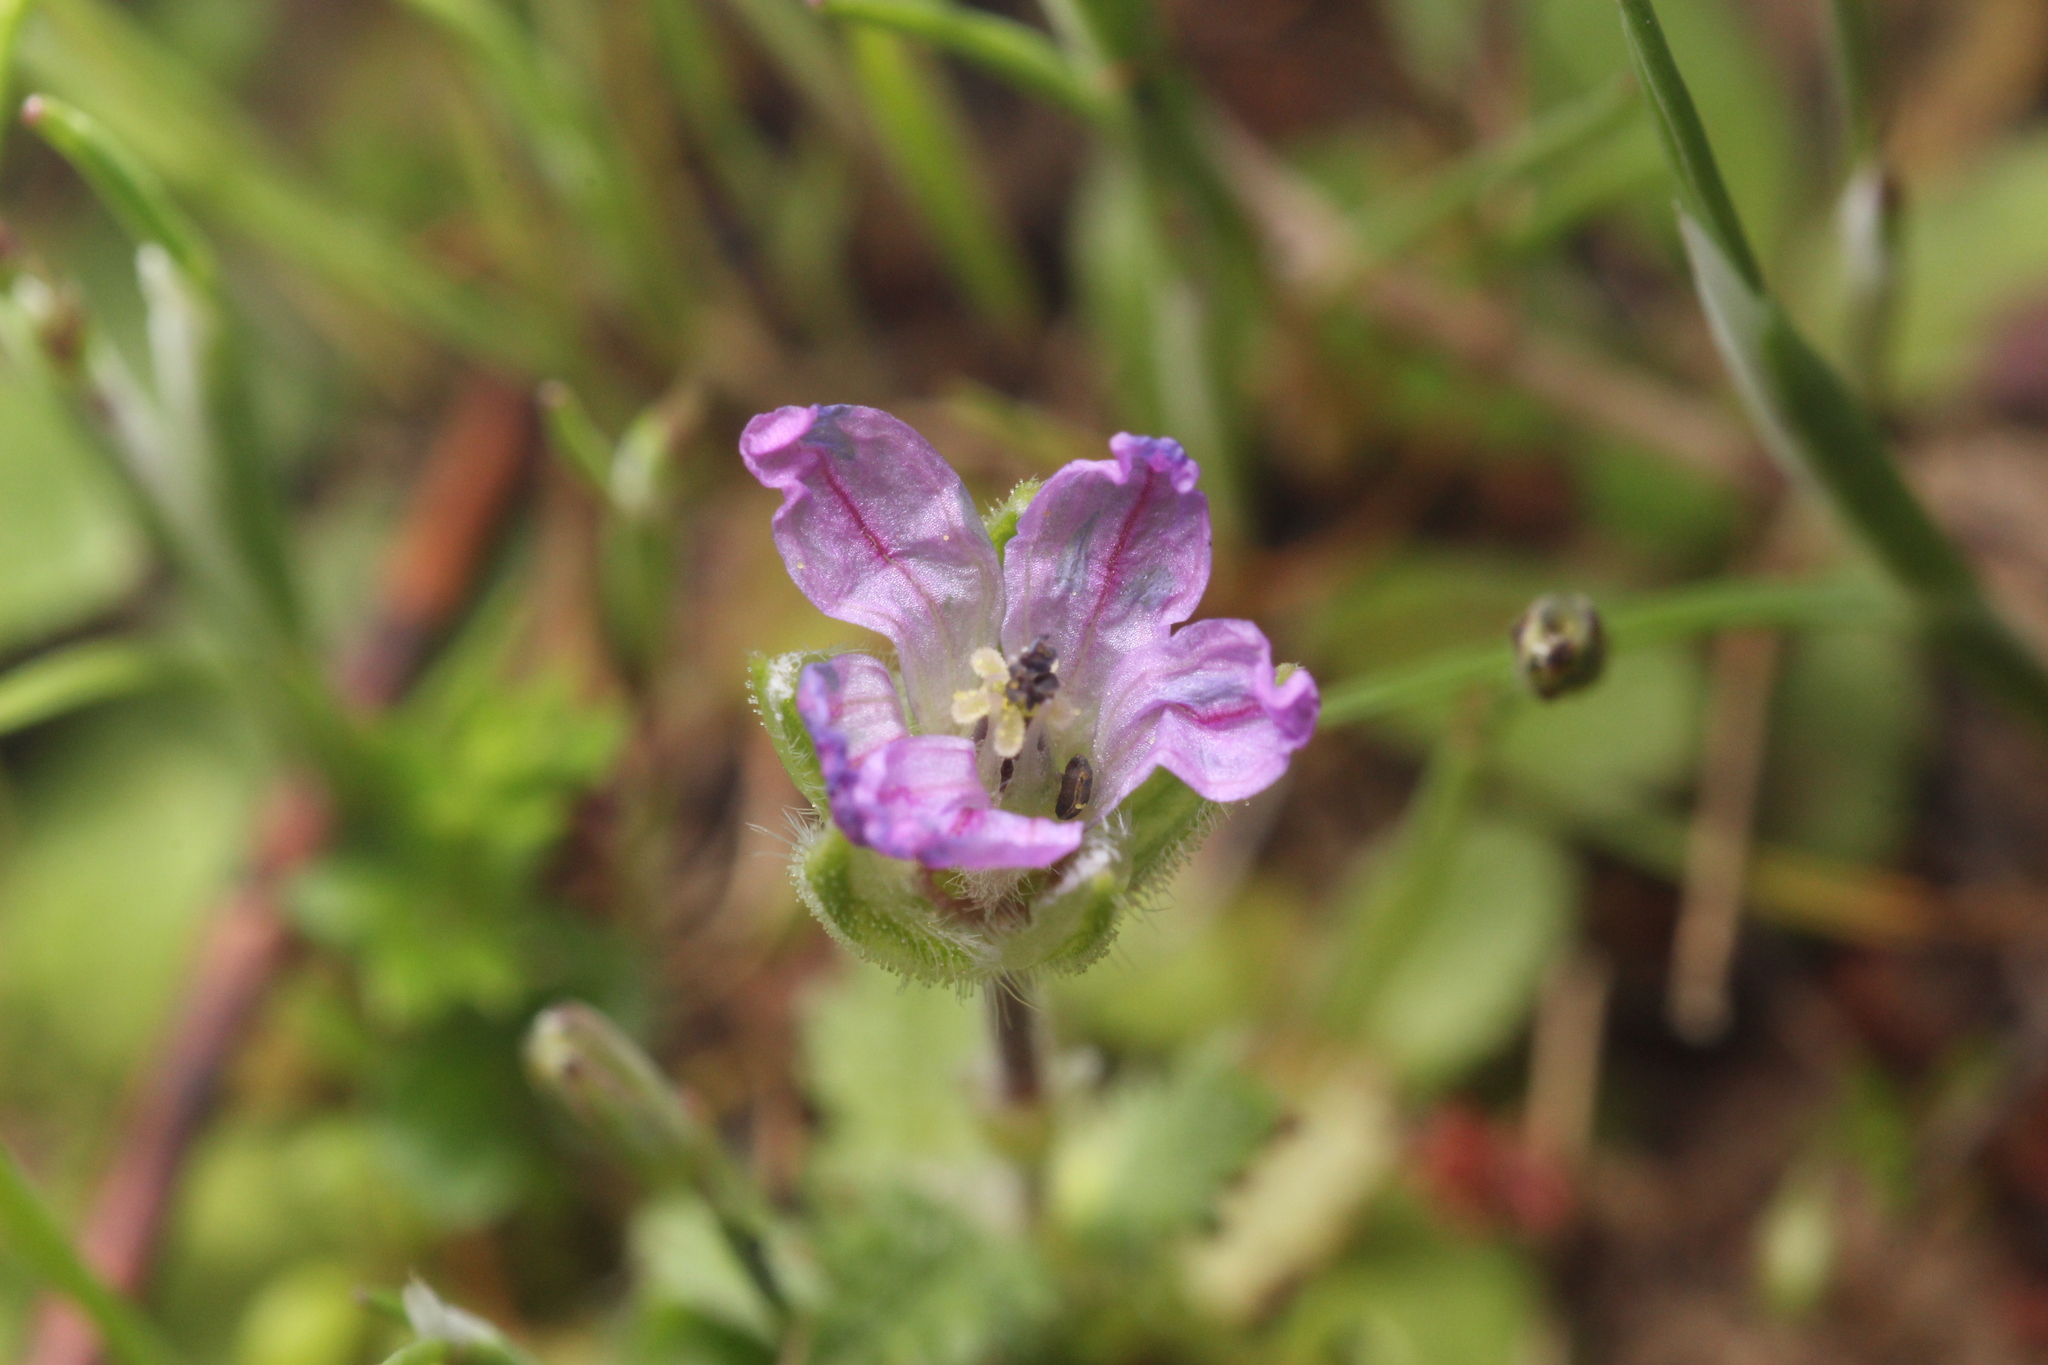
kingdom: Plantae
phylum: Tracheophyta
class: Magnoliopsida
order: Geraniales
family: Geraniaceae
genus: Erodium
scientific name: Erodium brachycarpum
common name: Hairy-pitted stork's-bill
